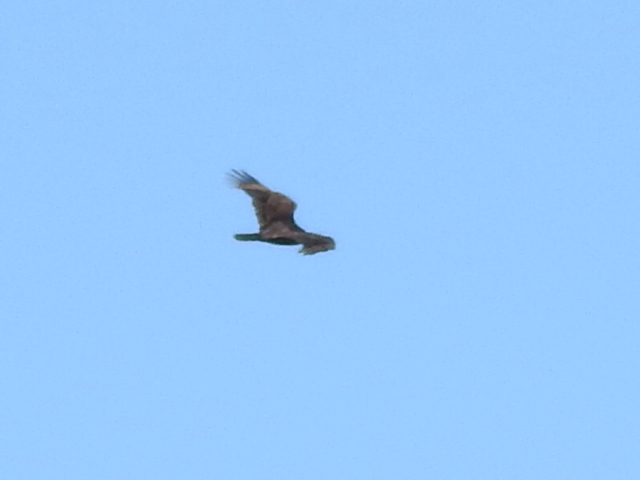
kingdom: Animalia
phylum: Chordata
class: Aves
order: Accipitriformes
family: Cathartidae
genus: Cathartes
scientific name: Cathartes aura
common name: Turkey vulture
